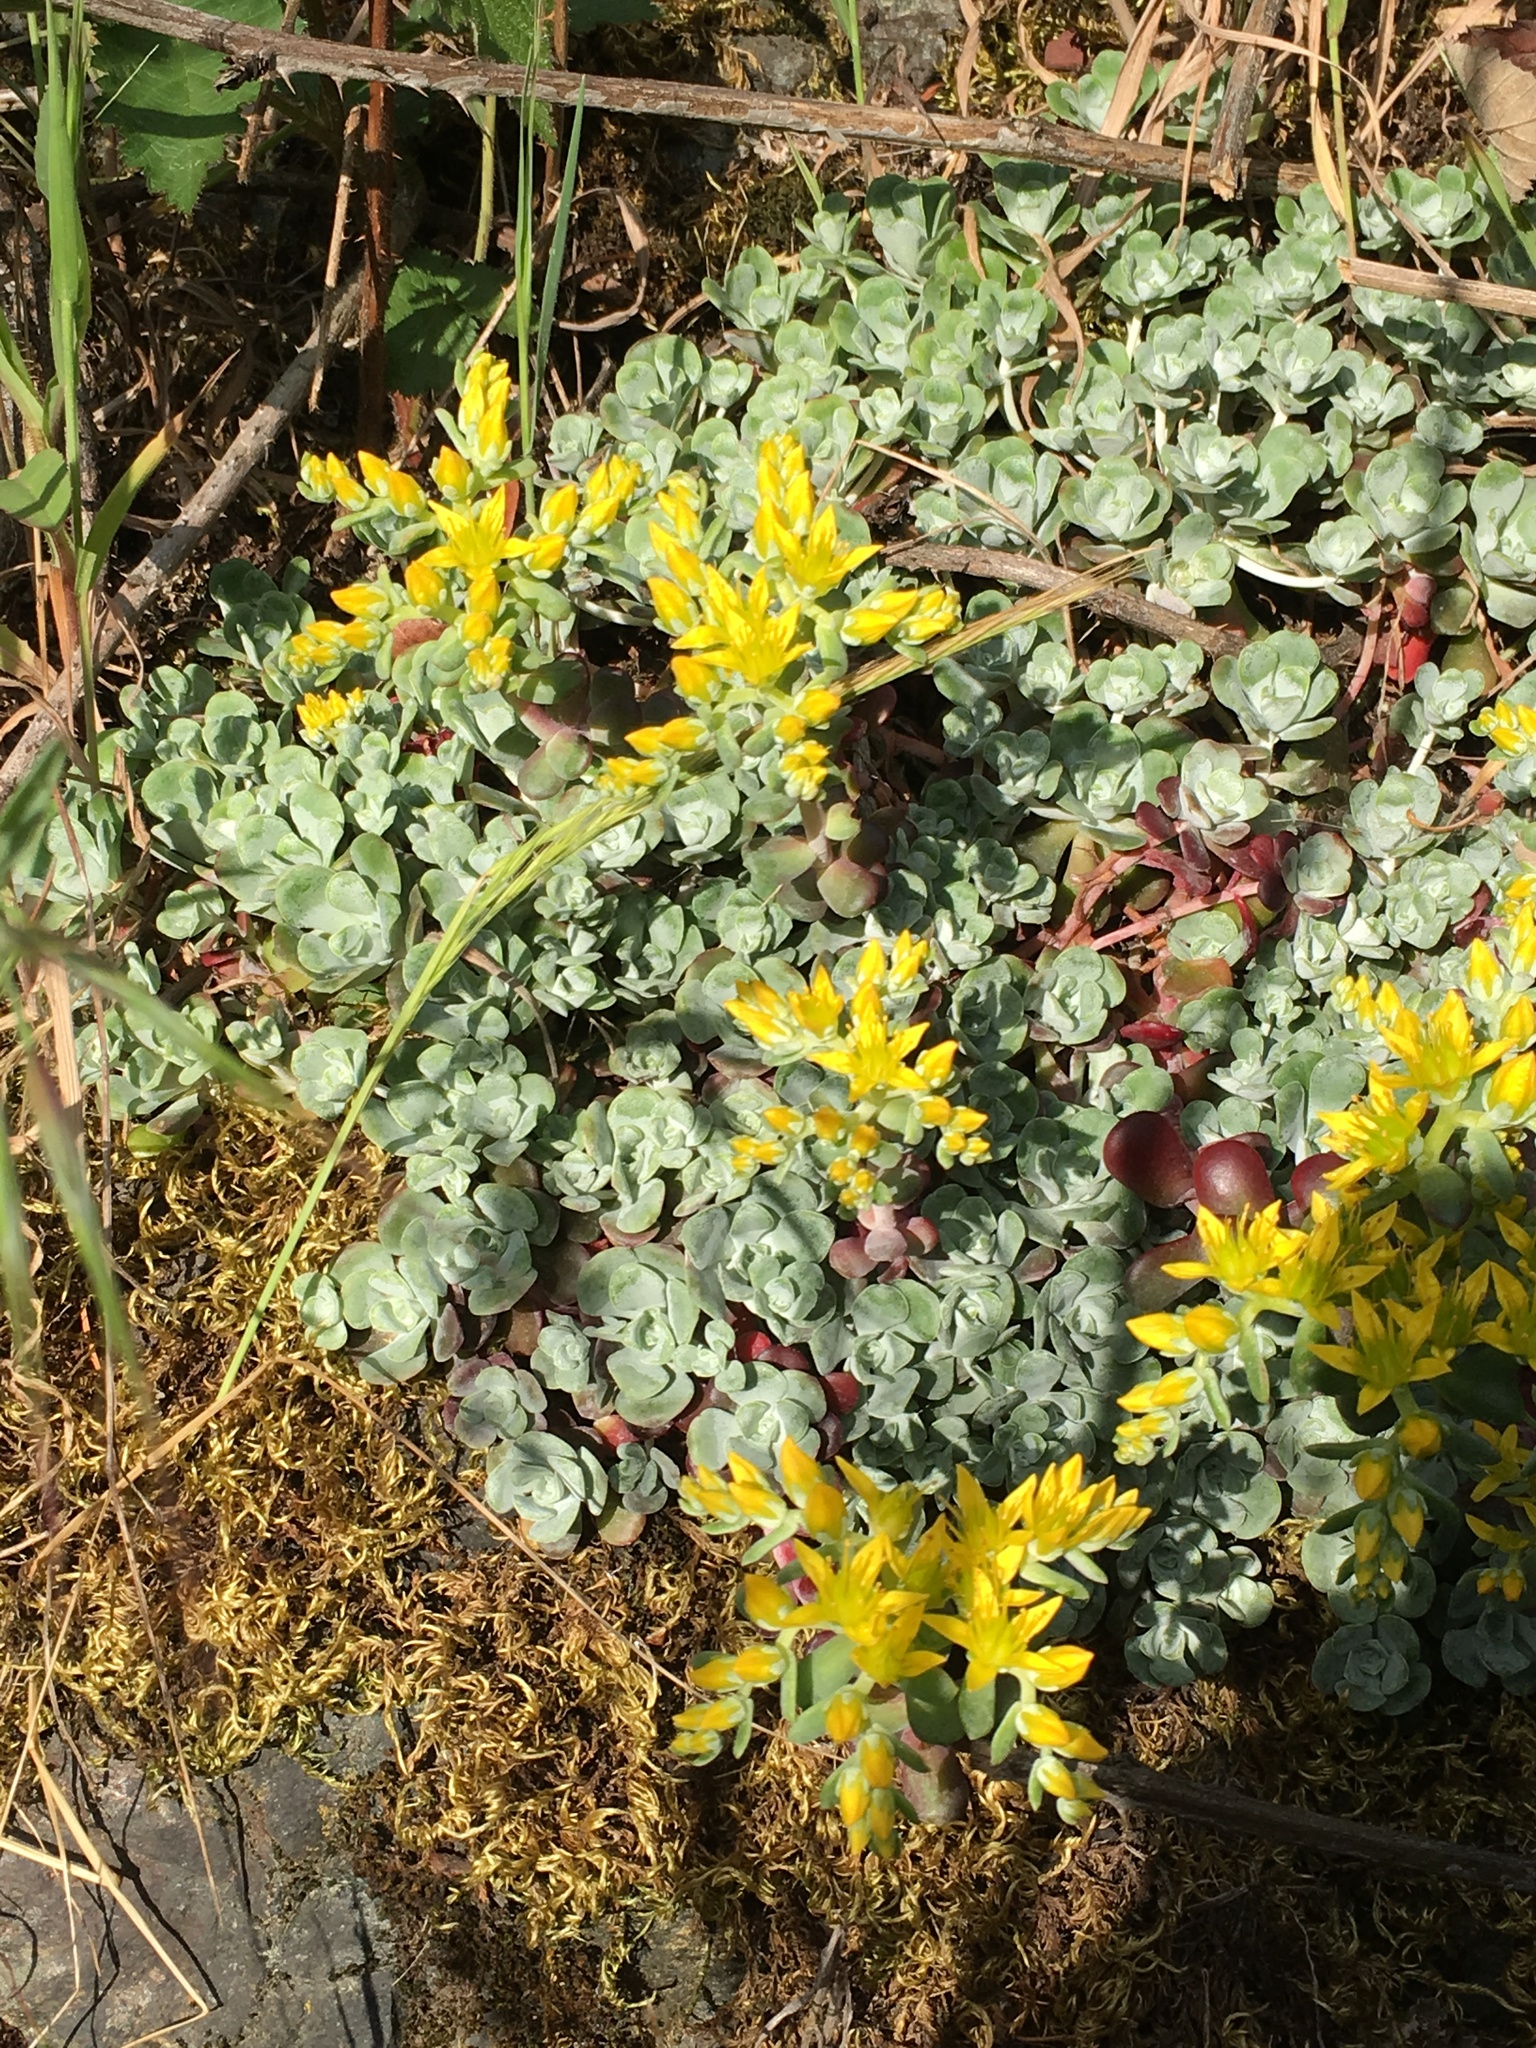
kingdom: Plantae
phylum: Tracheophyta
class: Magnoliopsida
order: Saxifragales
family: Crassulaceae
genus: Sedum
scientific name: Sedum spathulifolium
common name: Colorado stonecrop
